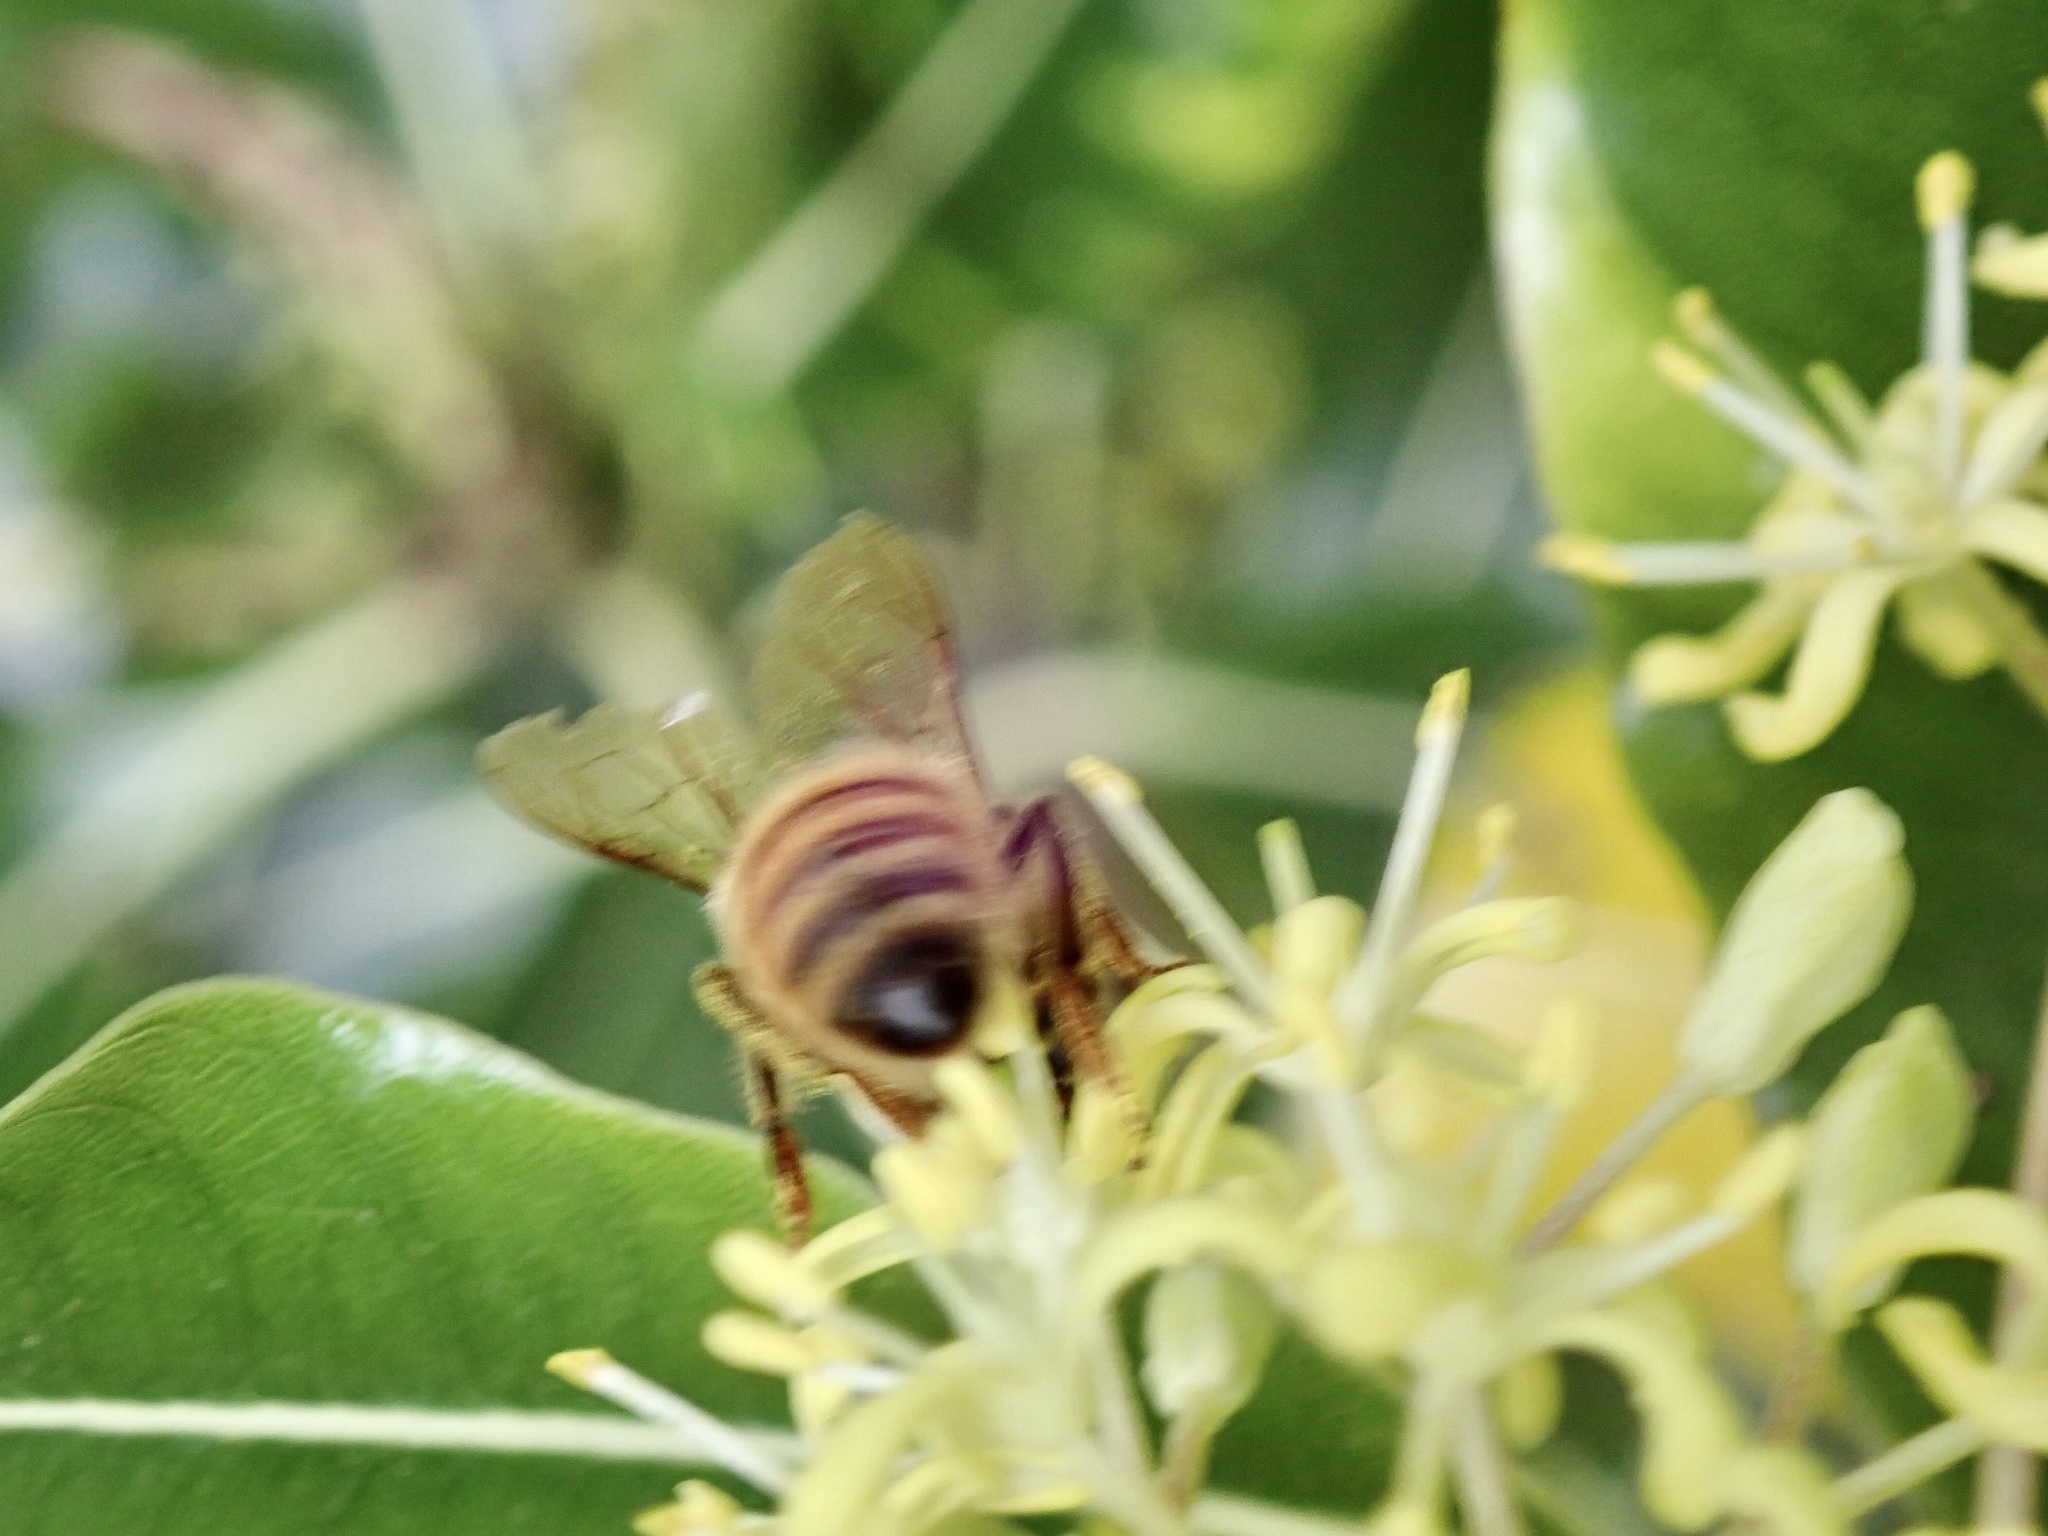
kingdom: Animalia
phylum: Arthropoda
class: Insecta
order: Hymenoptera
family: Apidae
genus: Apis
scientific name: Apis mellifera
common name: Honey bee
